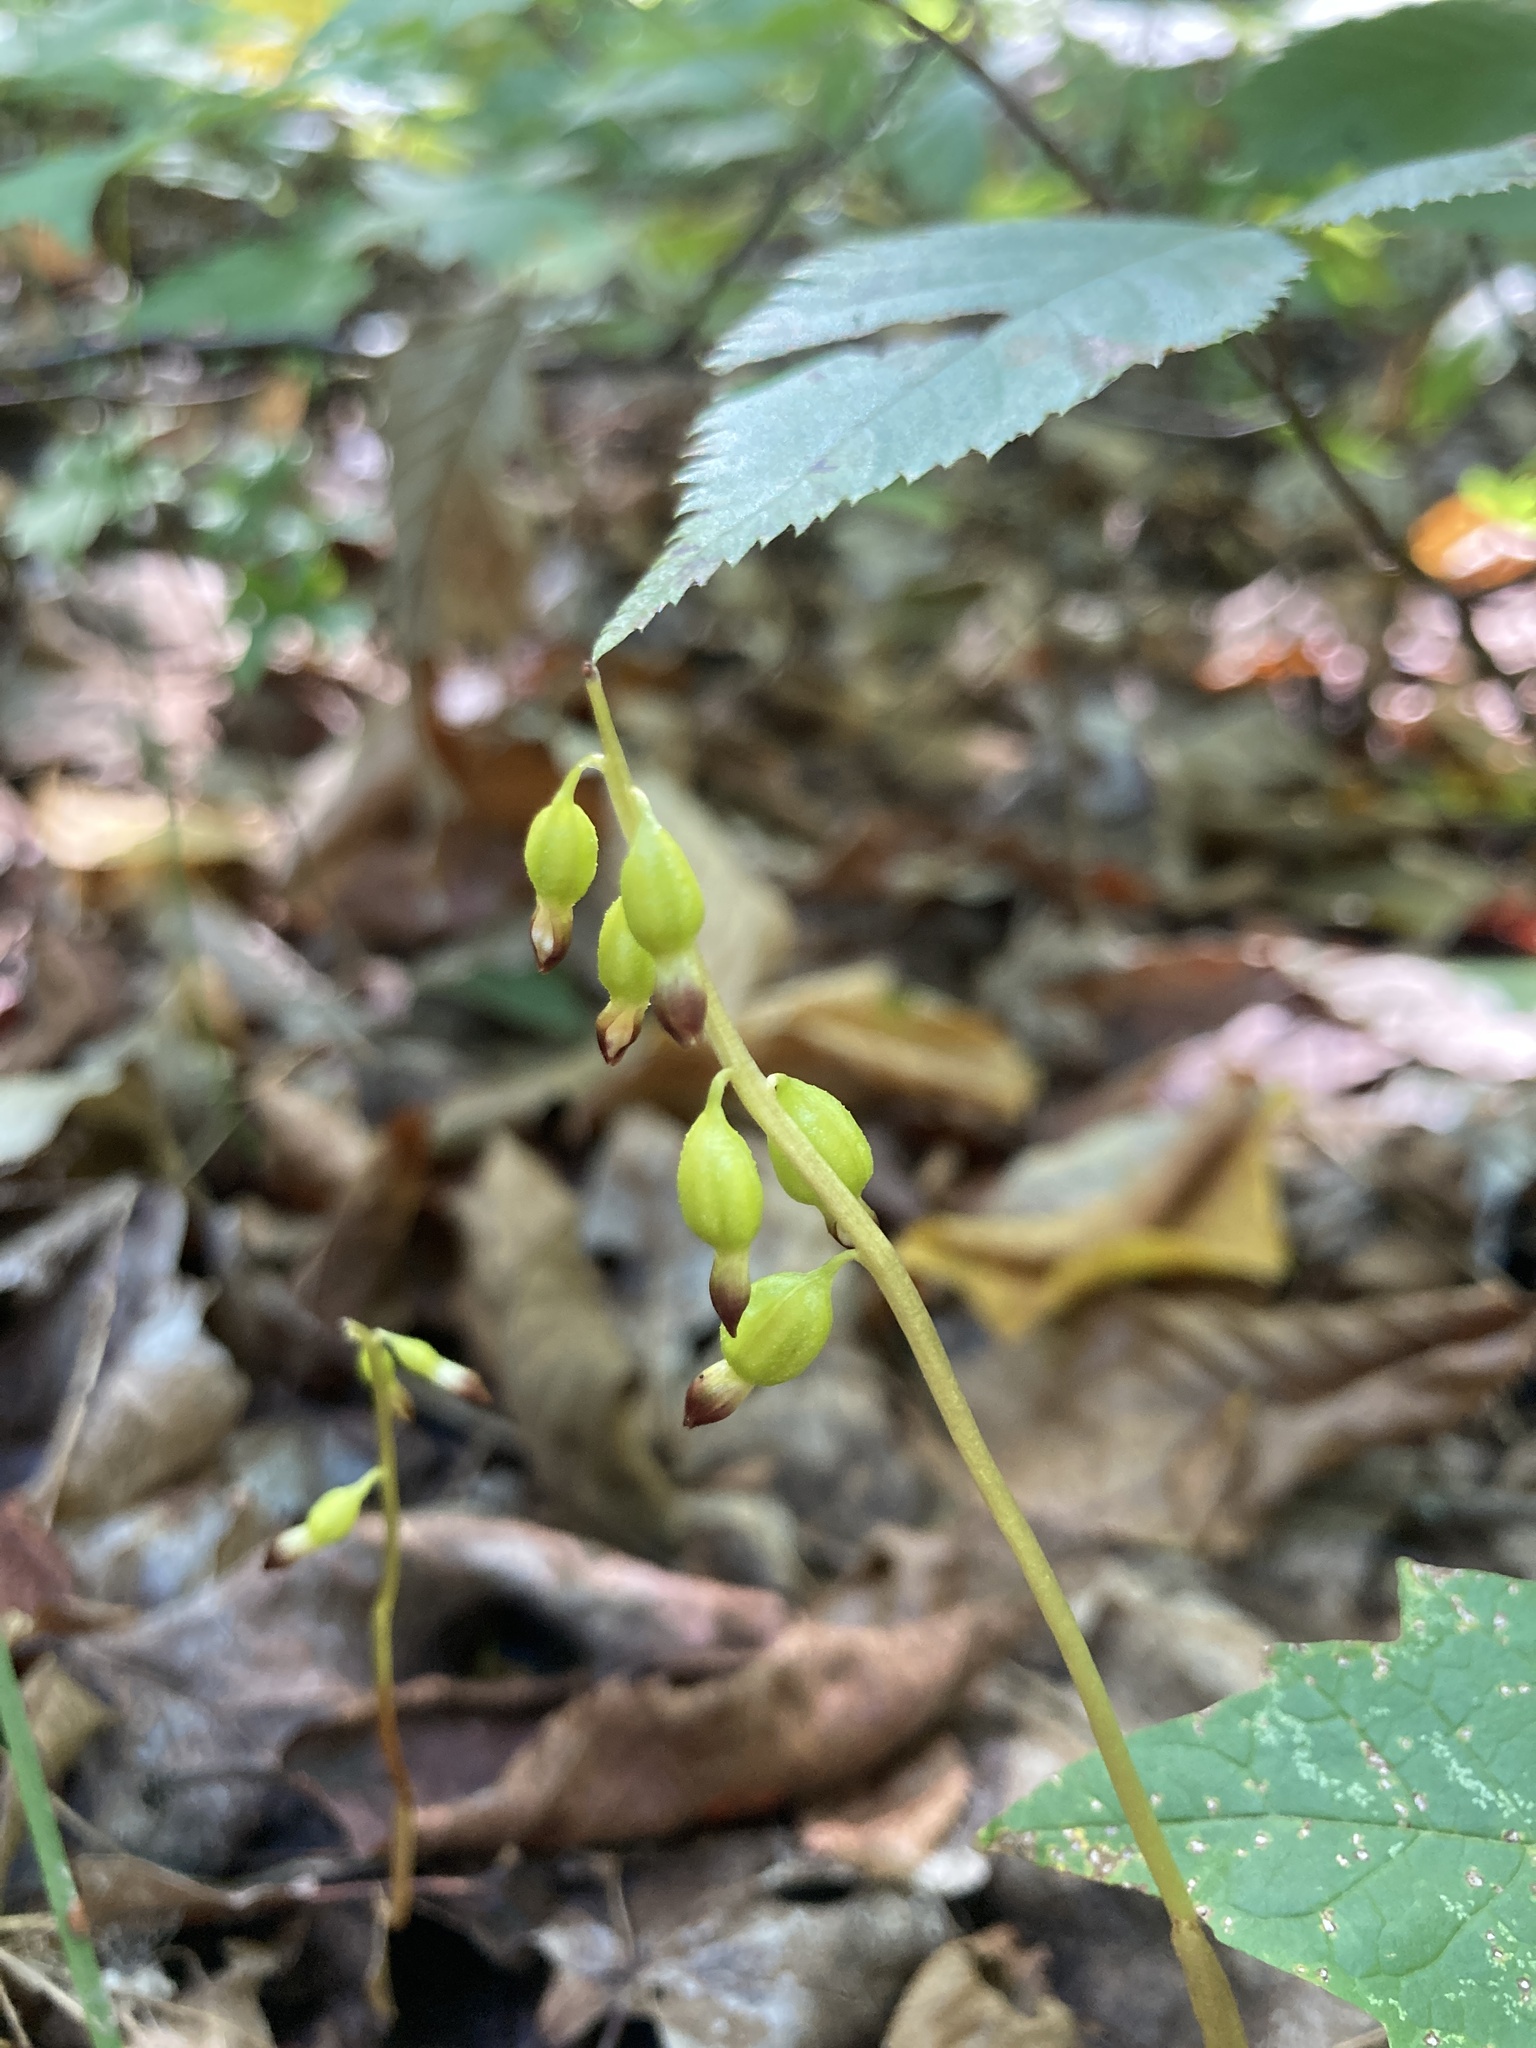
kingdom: Plantae
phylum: Tracheophyta
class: Liliopsida
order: Asparagales
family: Orchidaceae
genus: Corallorhiza
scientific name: Corallorhiza odontorhiza
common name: Autumn coralroot
